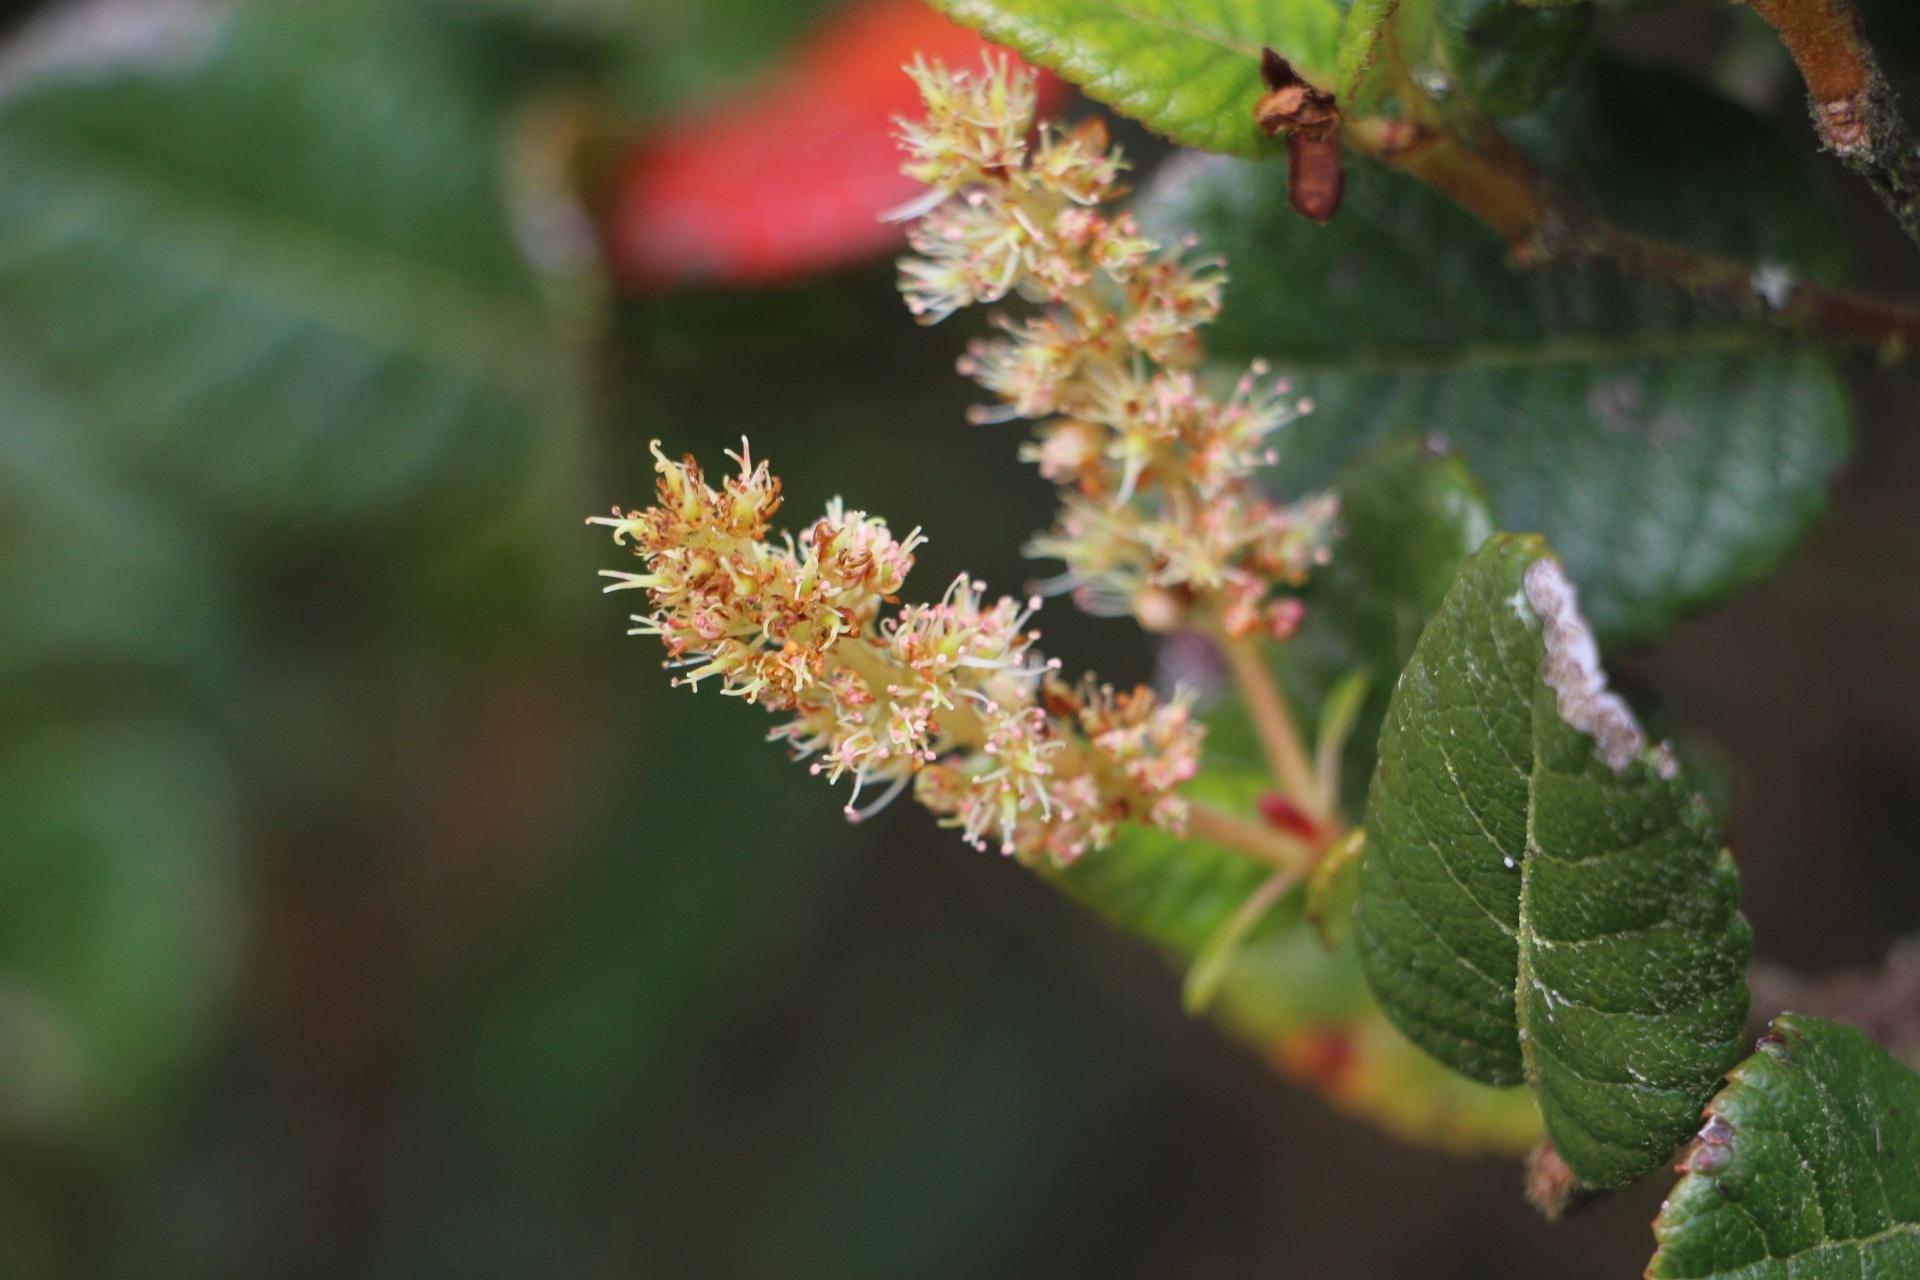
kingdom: Plantae
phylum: Tracheophyta
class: Magnoliopsida
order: Oxalidales
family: Cunoniaceae
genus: Weinmannia
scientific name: Weinmannia rollottii
